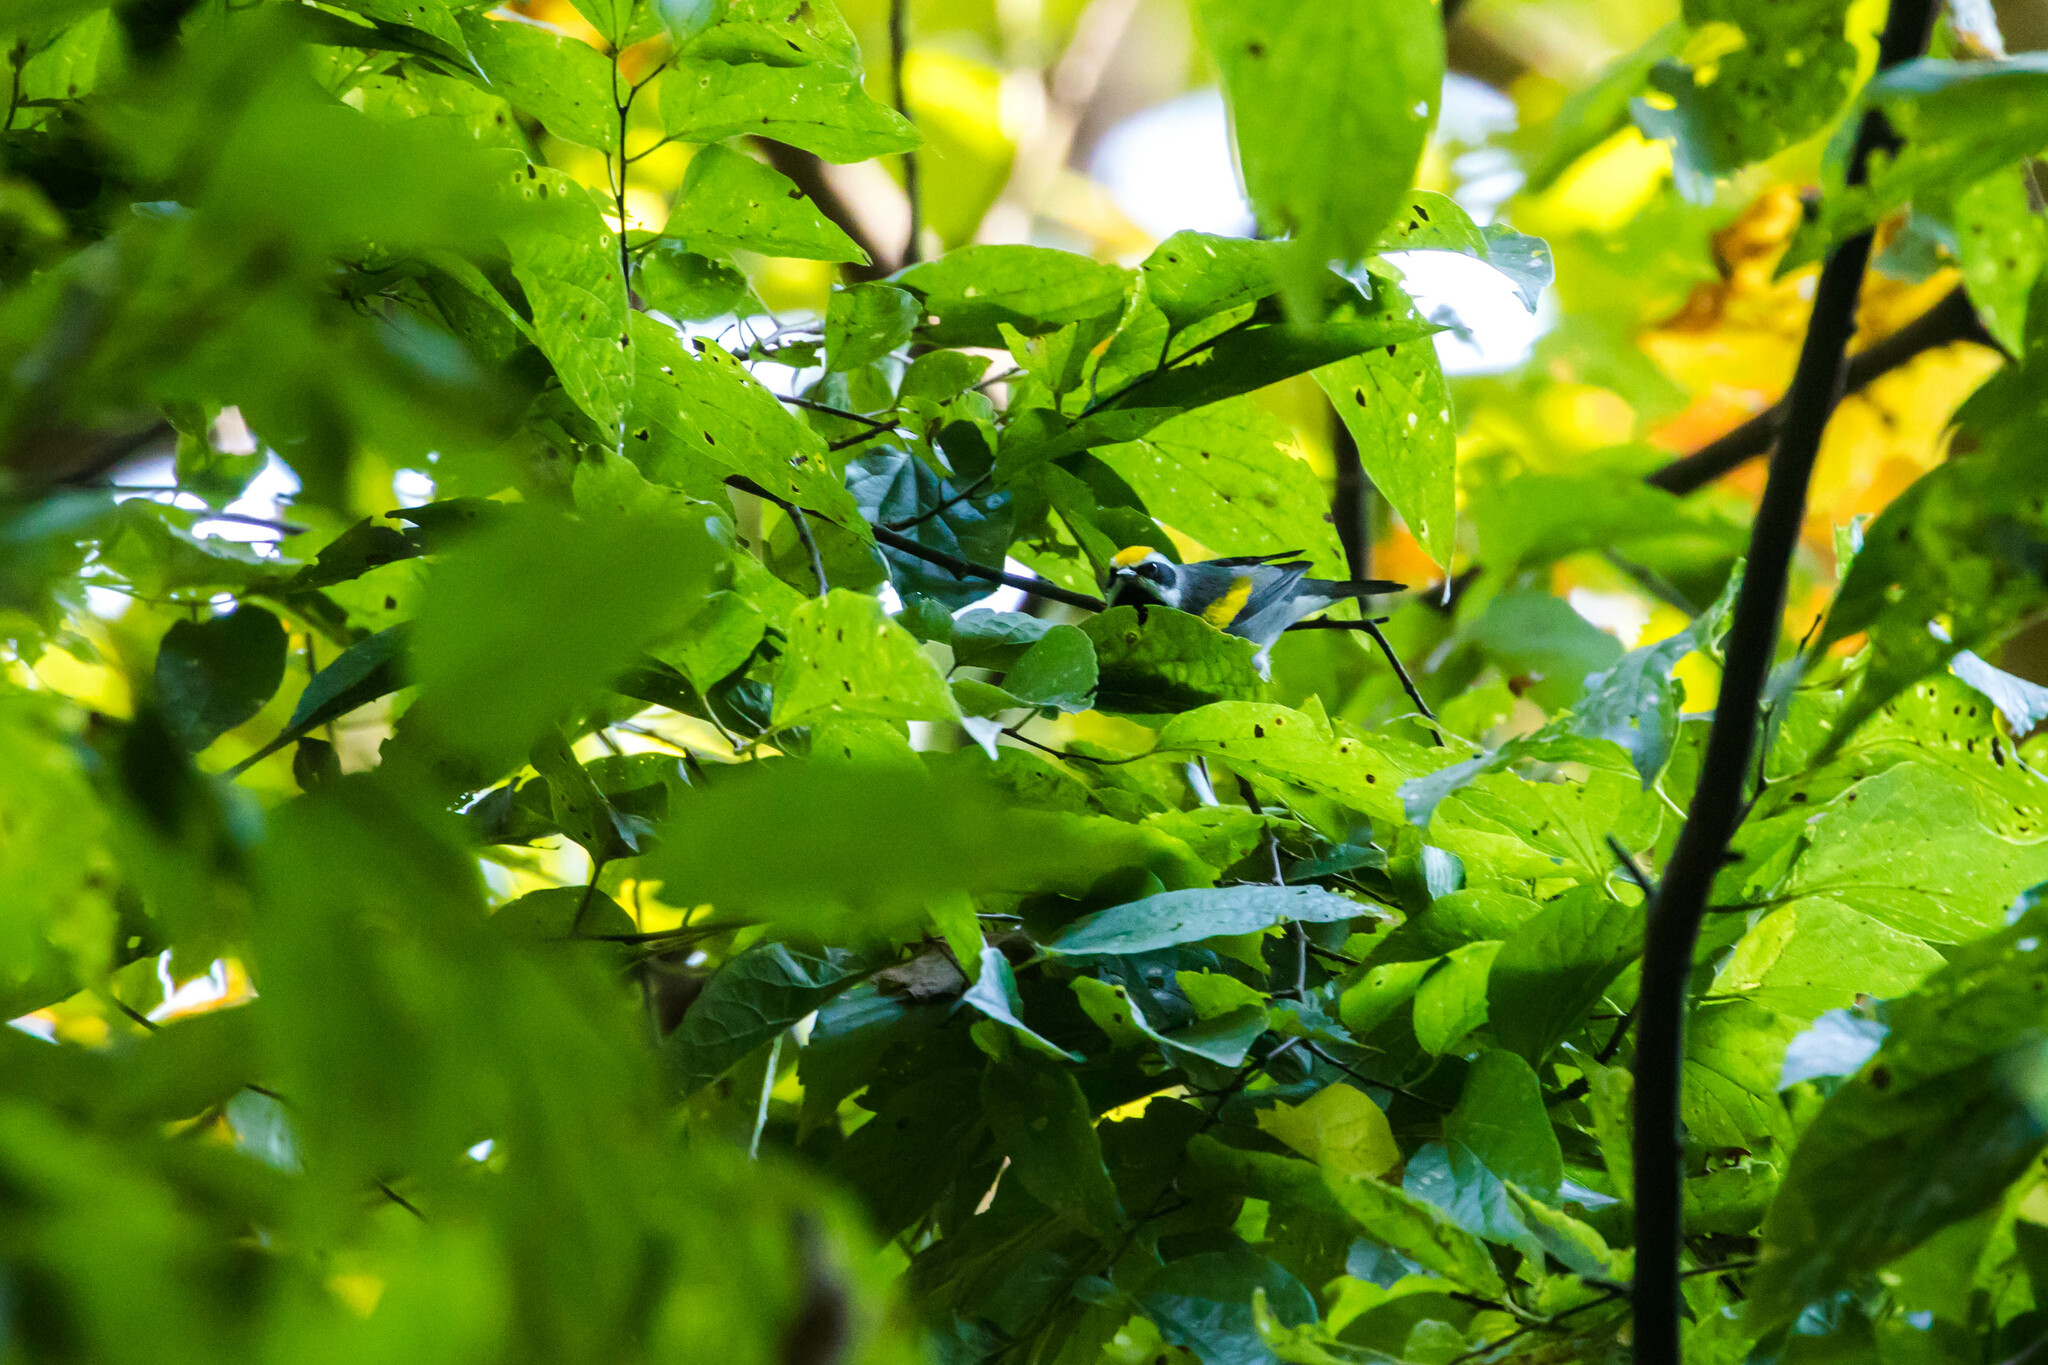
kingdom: Animalia
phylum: Chordata
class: Aves
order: Passeriformes
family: Parulidae
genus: Vermivora
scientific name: Vermivora chrysoptera
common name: Golden-winged warbler
